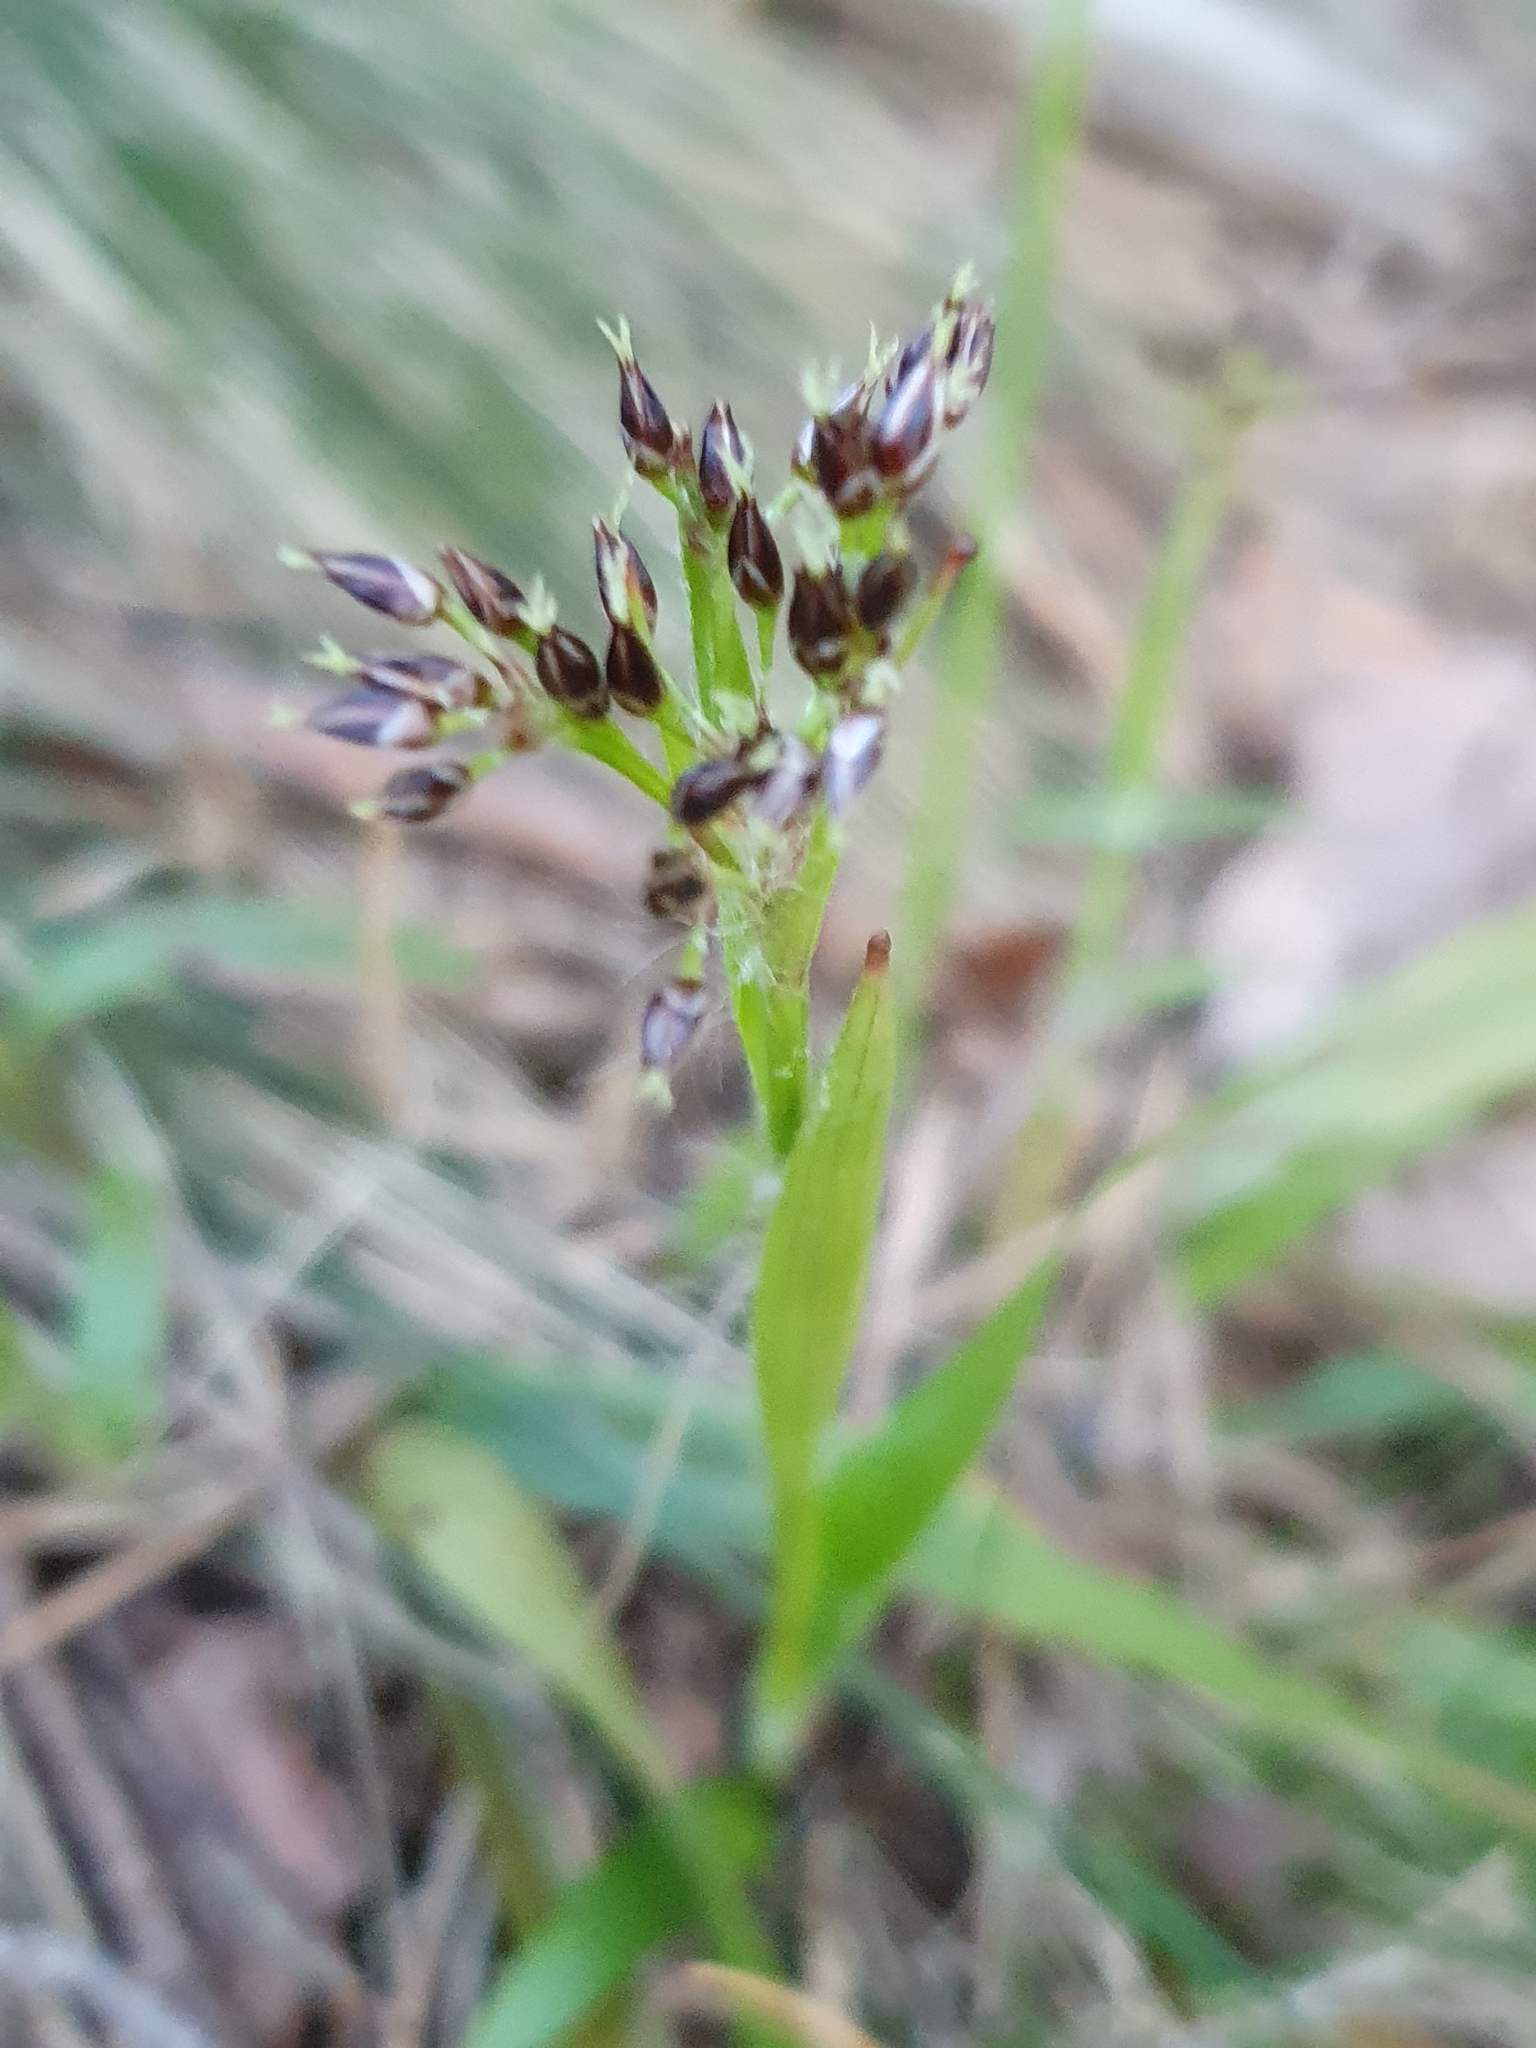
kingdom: Plantae
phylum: Tracheophyta
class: Liliopsida
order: Poales
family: Juncaceae
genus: Luzula
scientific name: Luzula pilosa
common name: Hairy wood-rush
